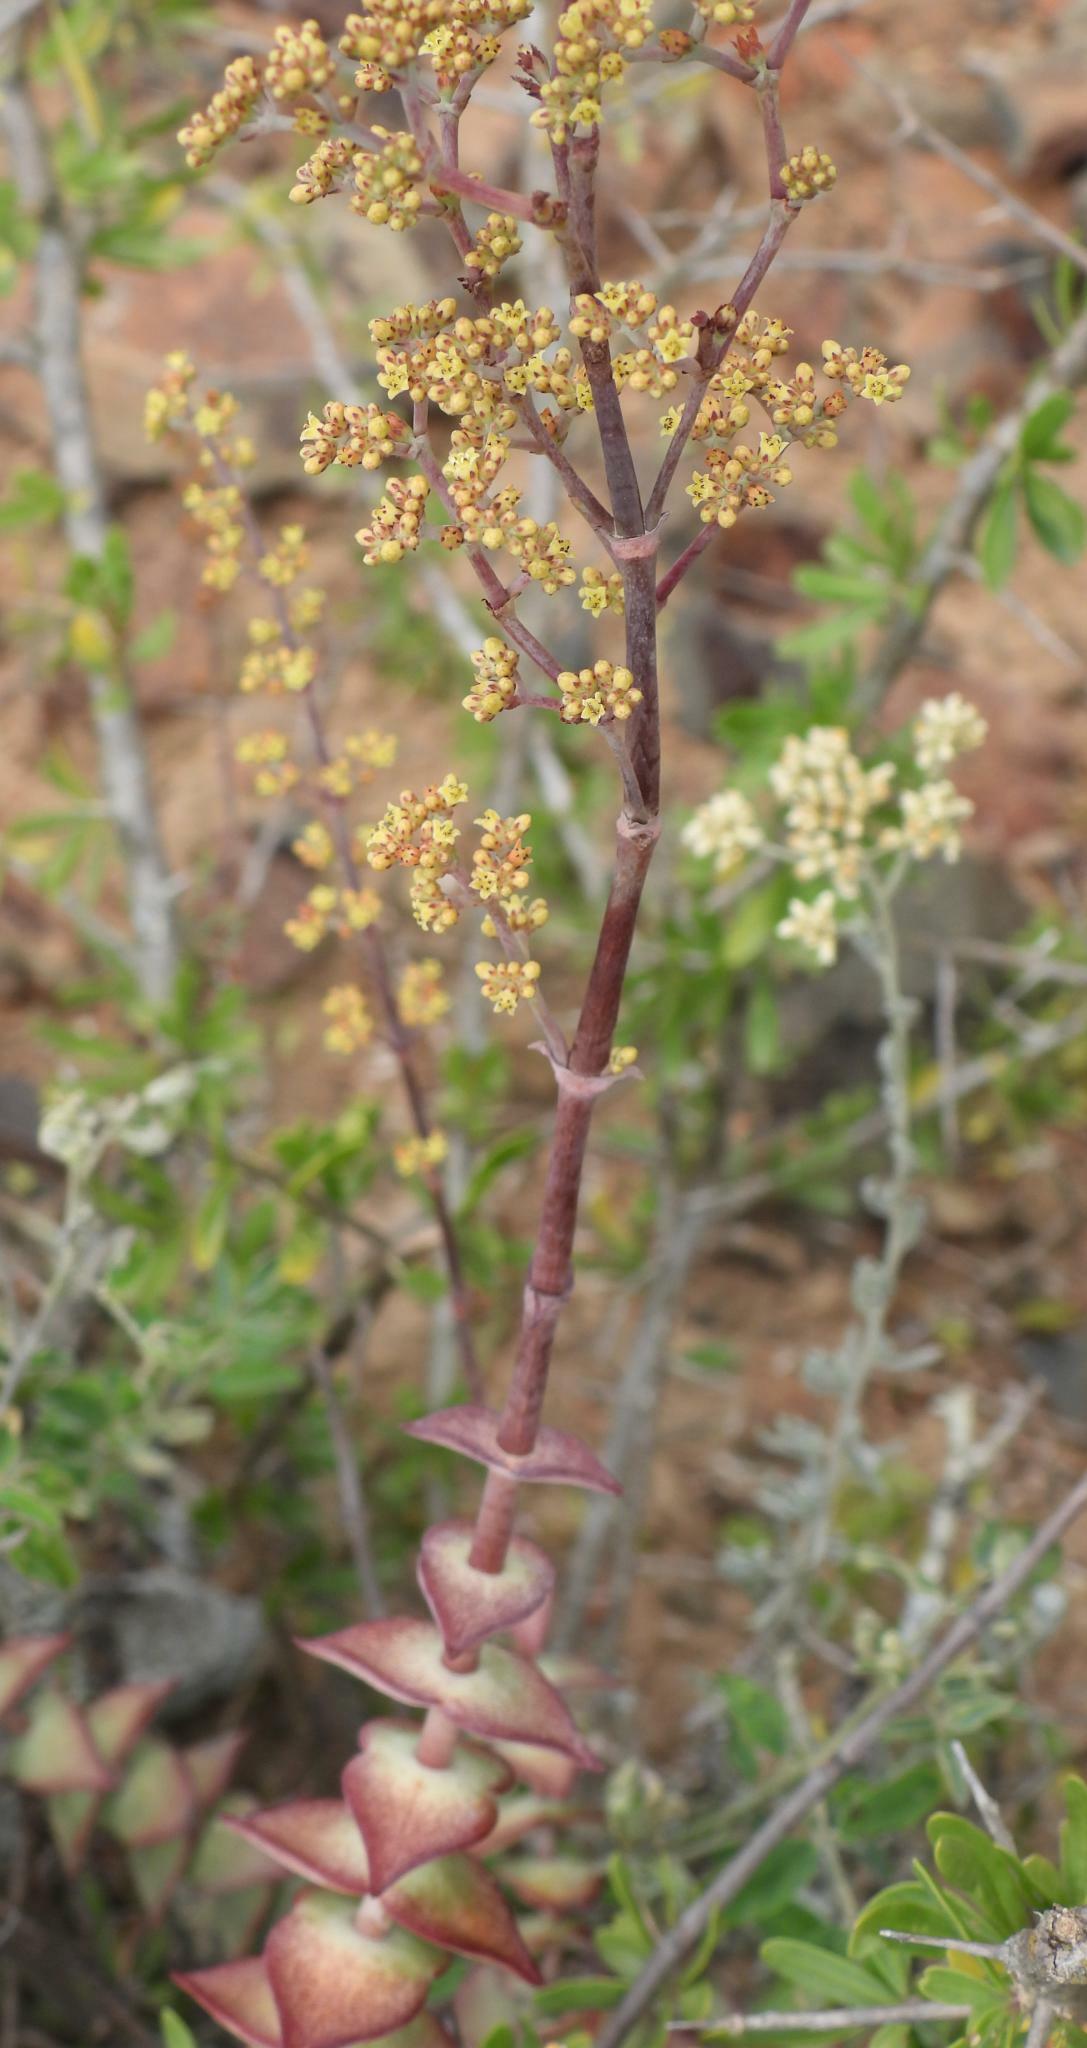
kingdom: Plantae
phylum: Tracheophyta
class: Magnoliopsida
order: Saxifragales
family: Crassulaceae
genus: Crassula
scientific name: Crassula perforata
